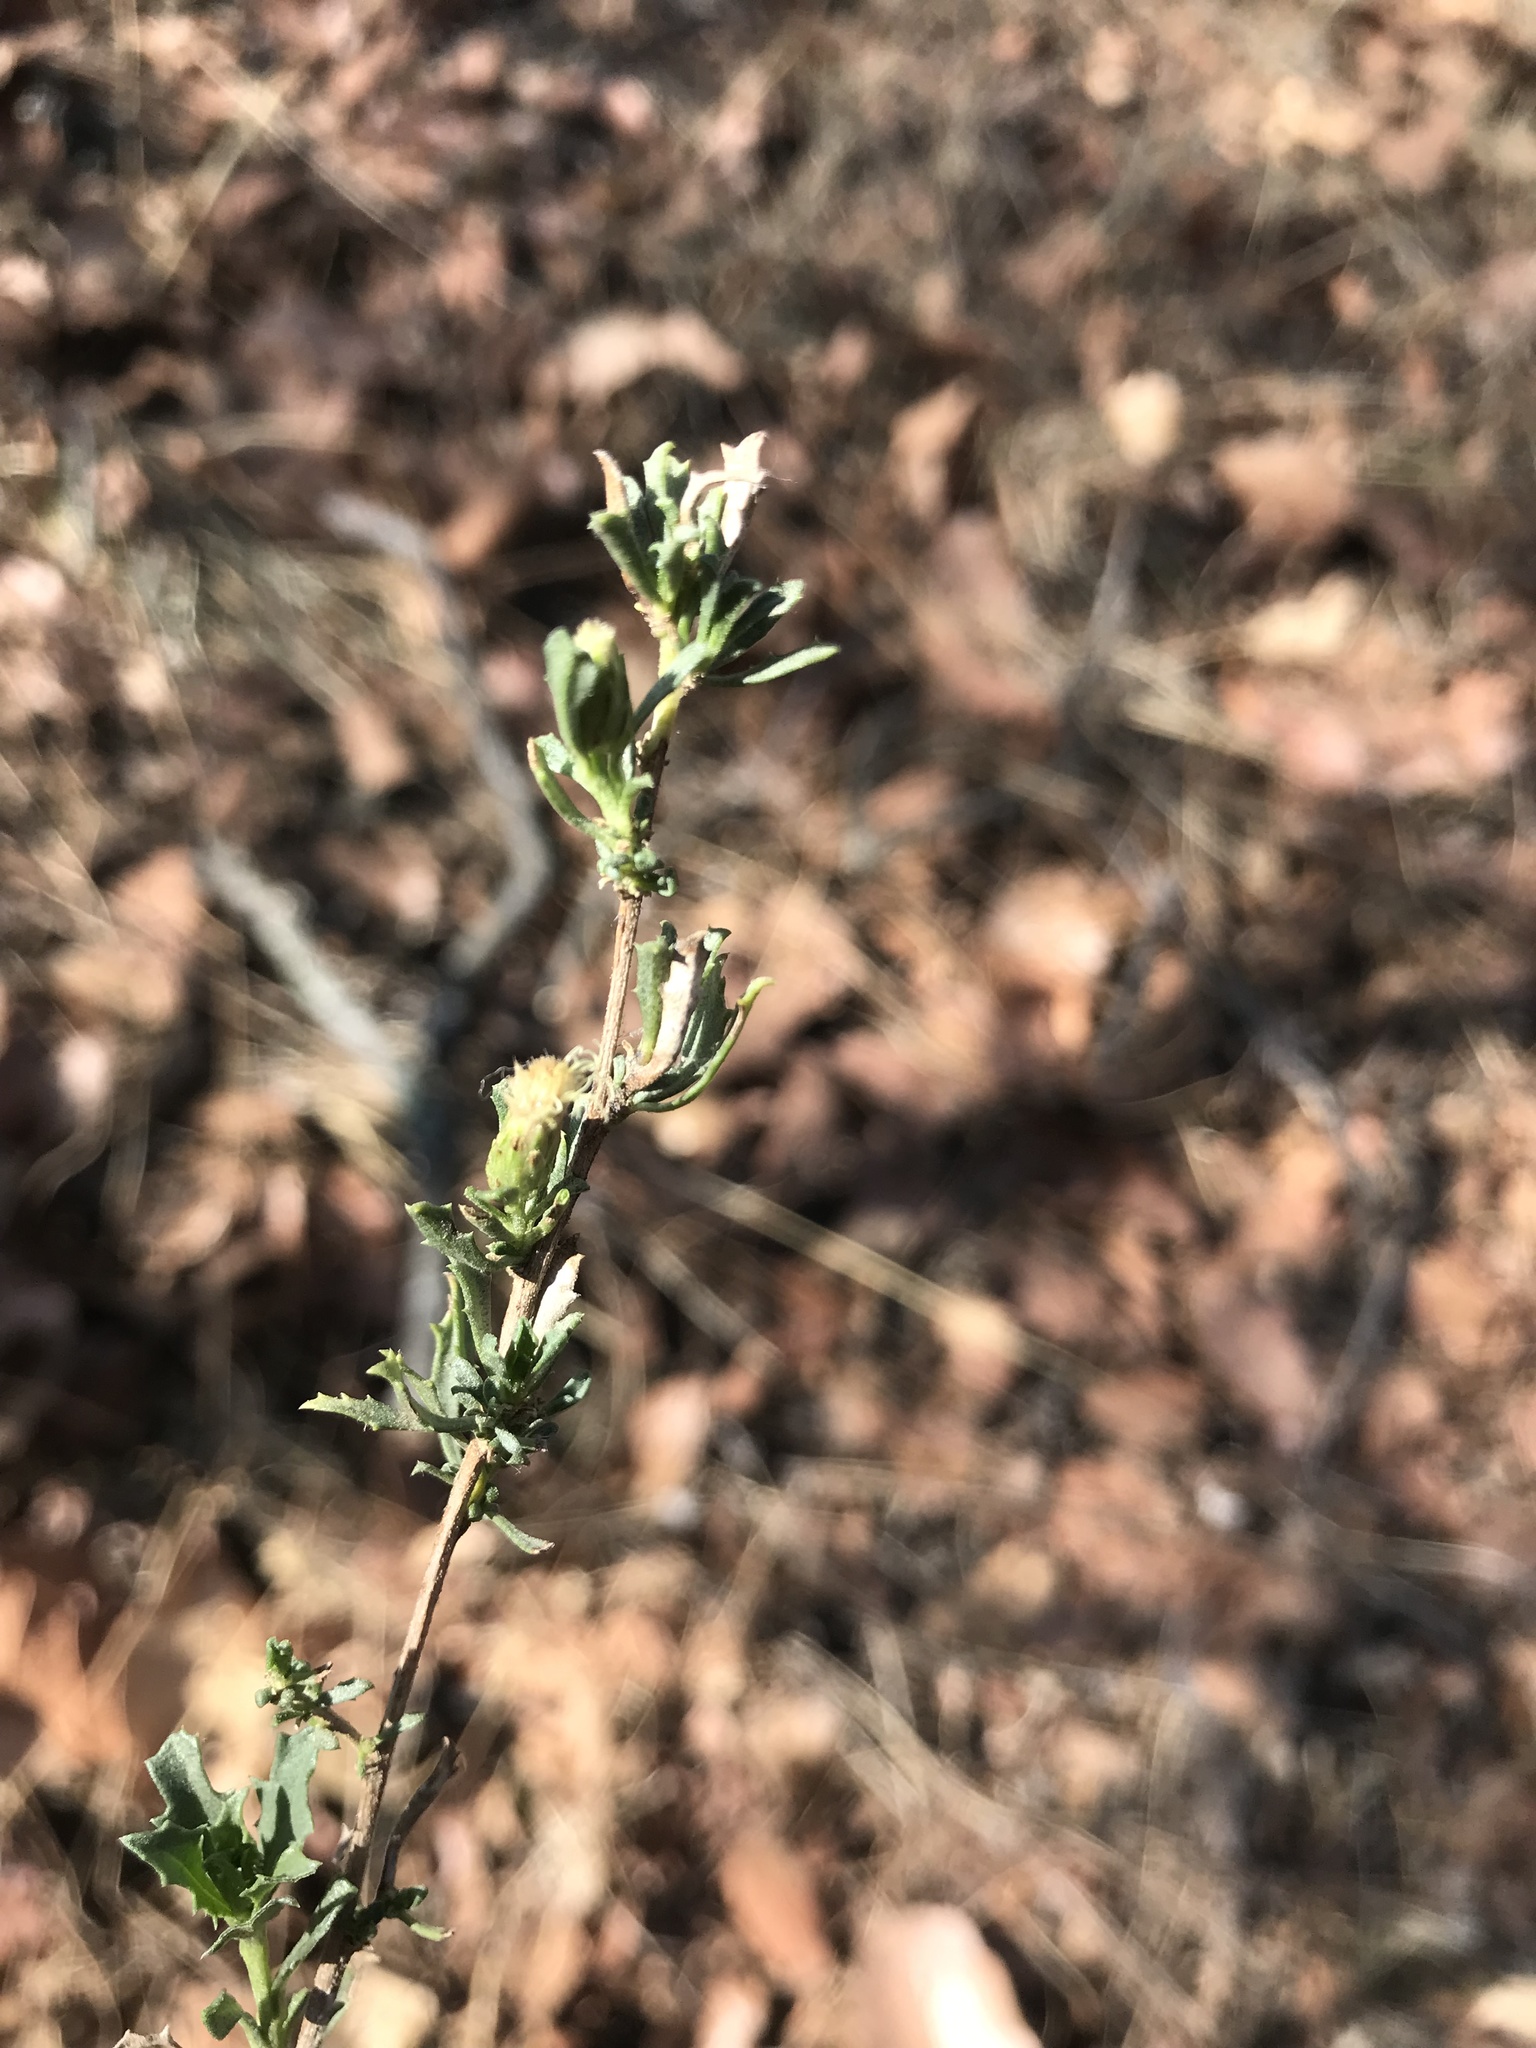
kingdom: Plantae
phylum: Tracheophyta
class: Magnoliopsida
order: Asterales
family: Asteraceae
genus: Baccharis
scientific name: Baccharis pteronioides
